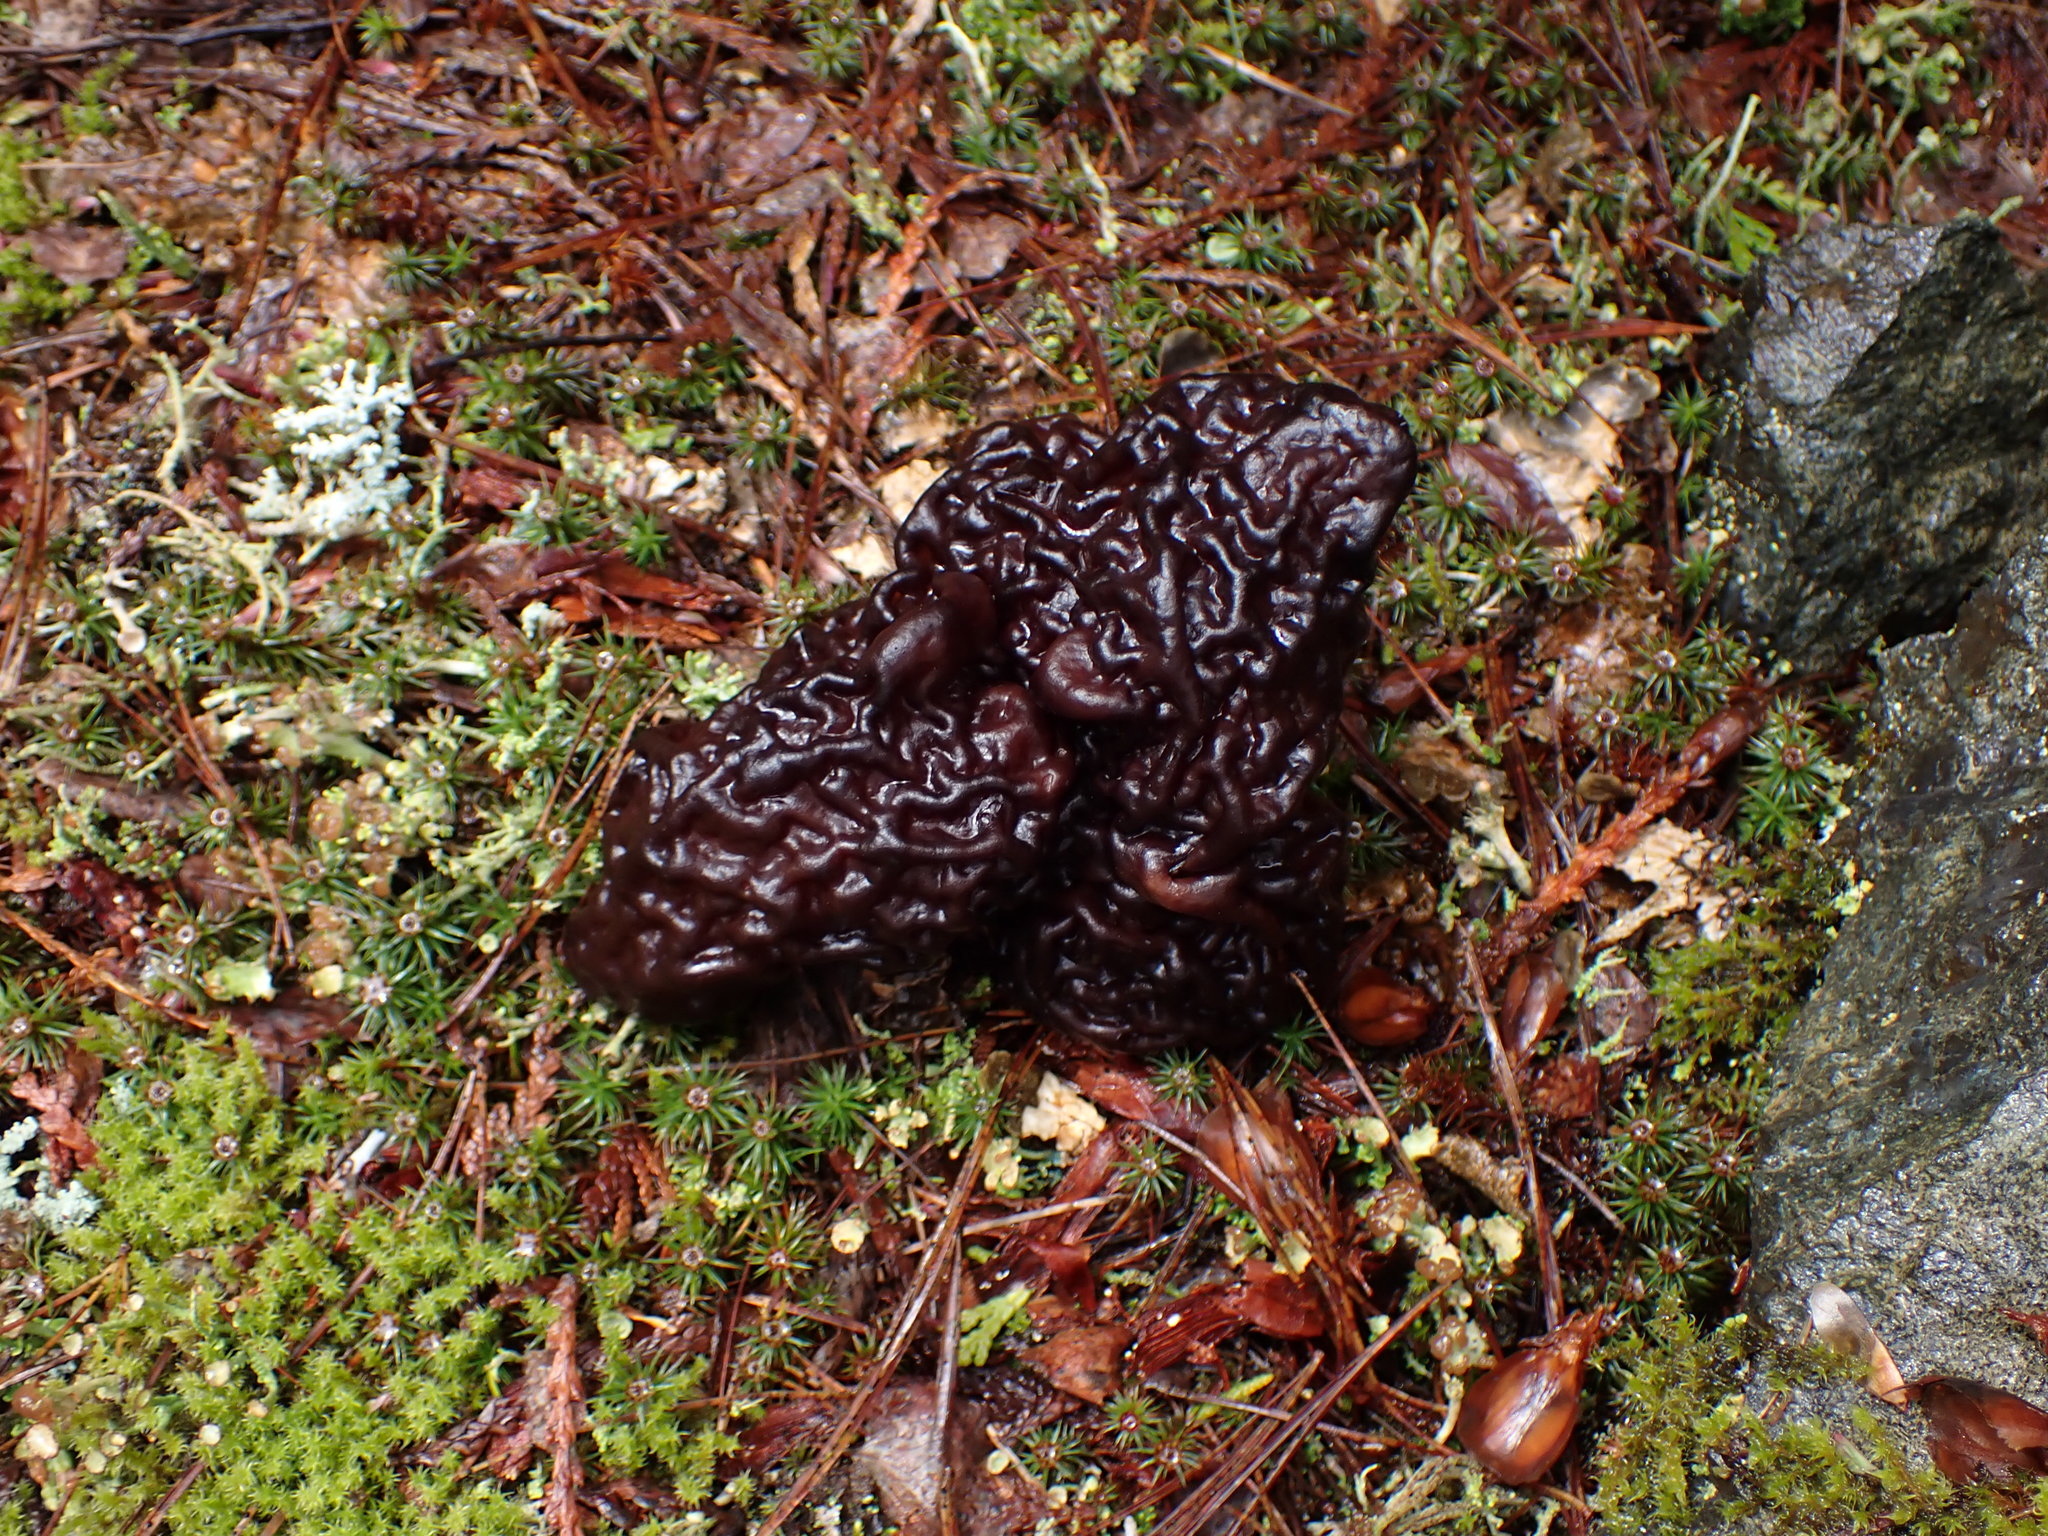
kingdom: Fungi
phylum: Ascomycota
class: Pezizomycetes
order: Pezizales
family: Discinaceae
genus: Gyromitra
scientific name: Gyromitra esculenta
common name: False morel
